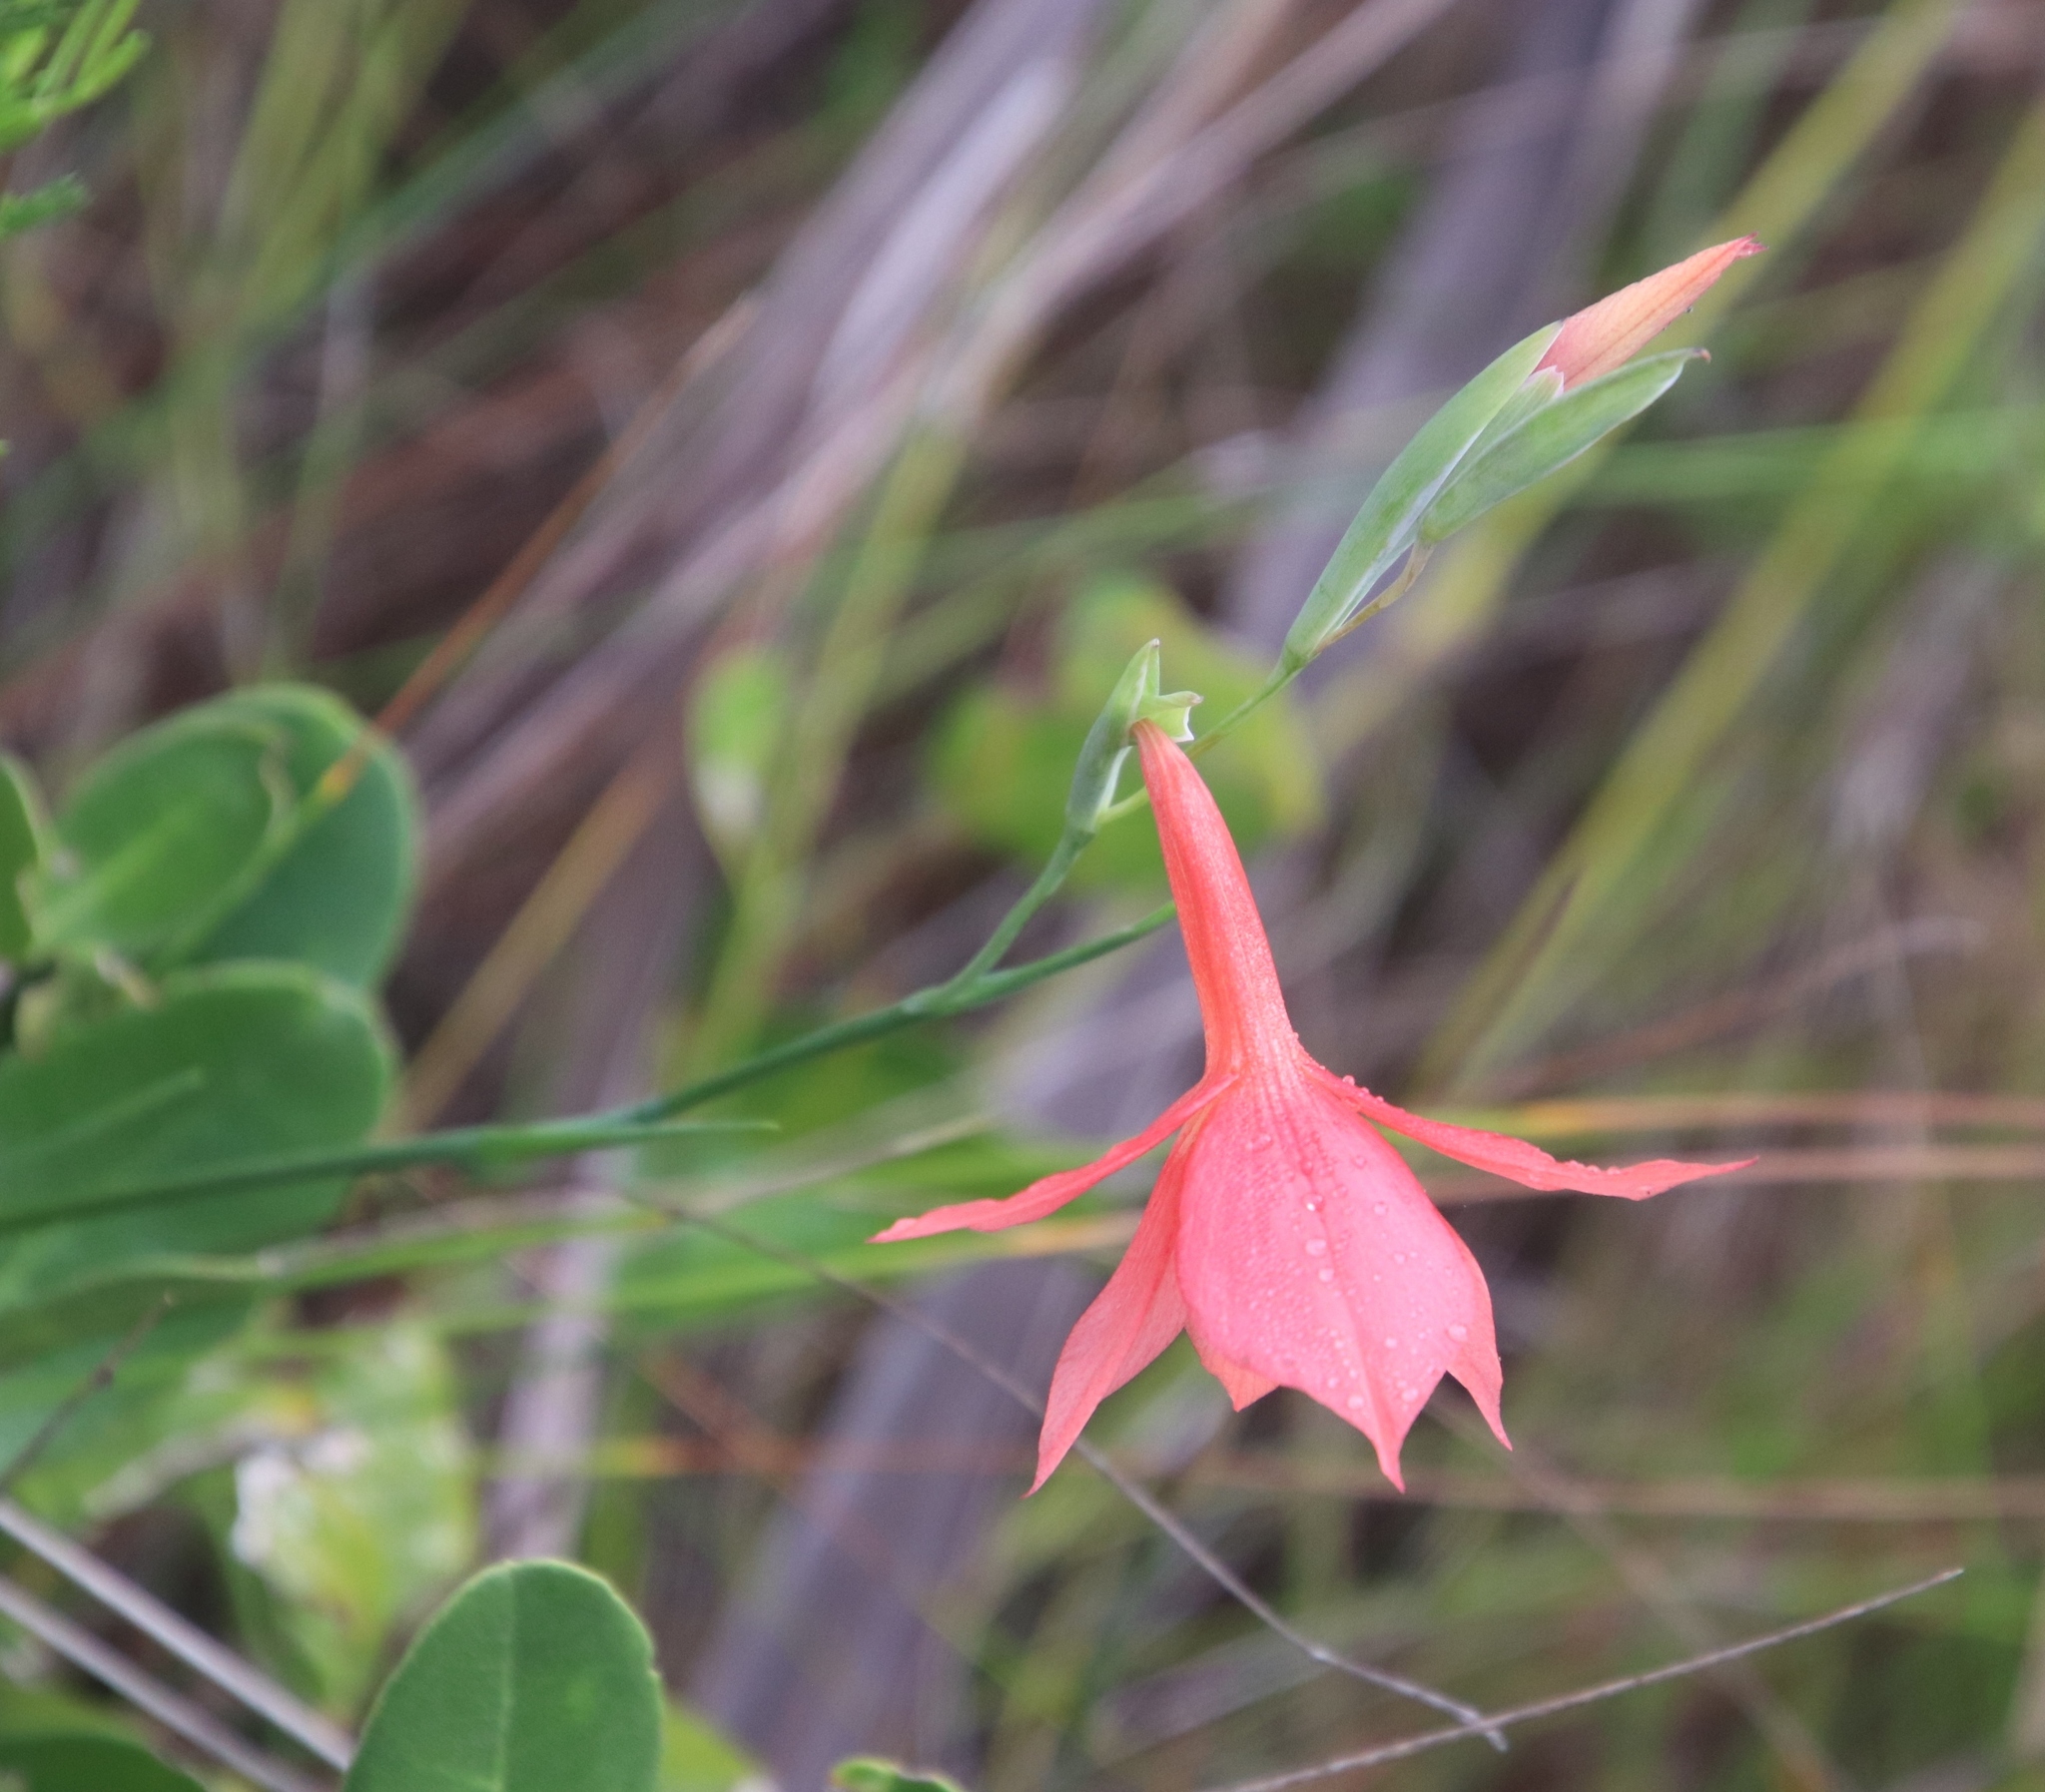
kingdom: Plantae
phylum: Tracheophyta
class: Liliopsida
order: Asparagales
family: Iridaceae
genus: Gladiolus
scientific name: Gladiolus priorii
